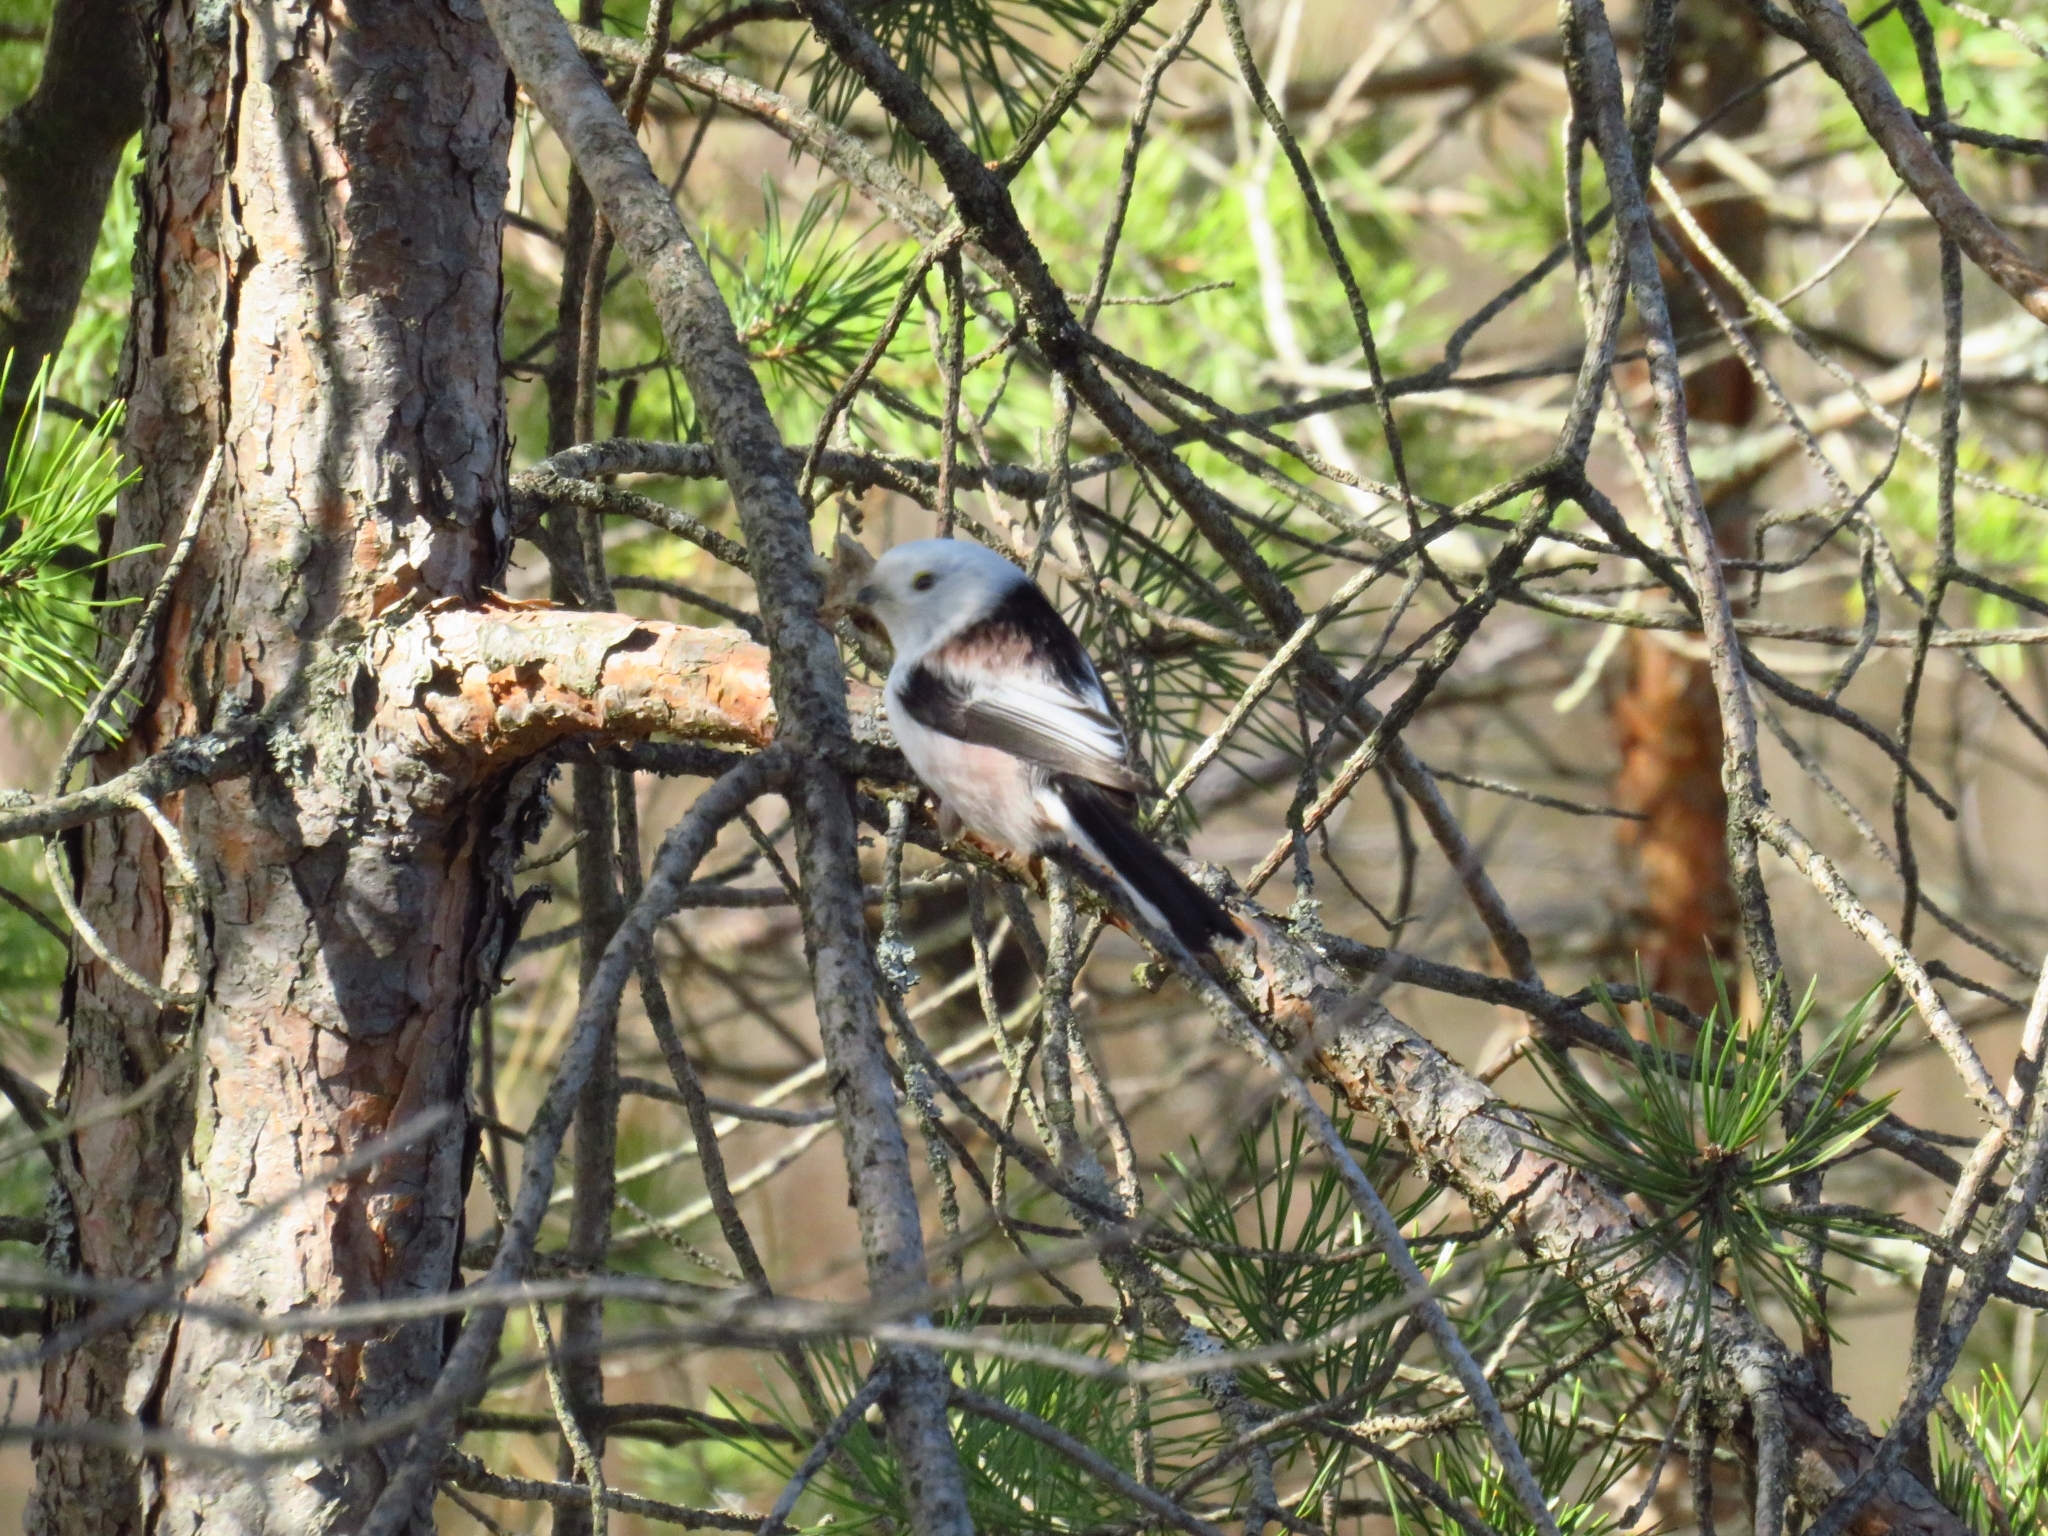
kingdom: Animalia
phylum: Chordata
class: Aves
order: Passeriformes
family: Aegithalidae
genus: Aegithalos
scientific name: Aegithalos caudatus
